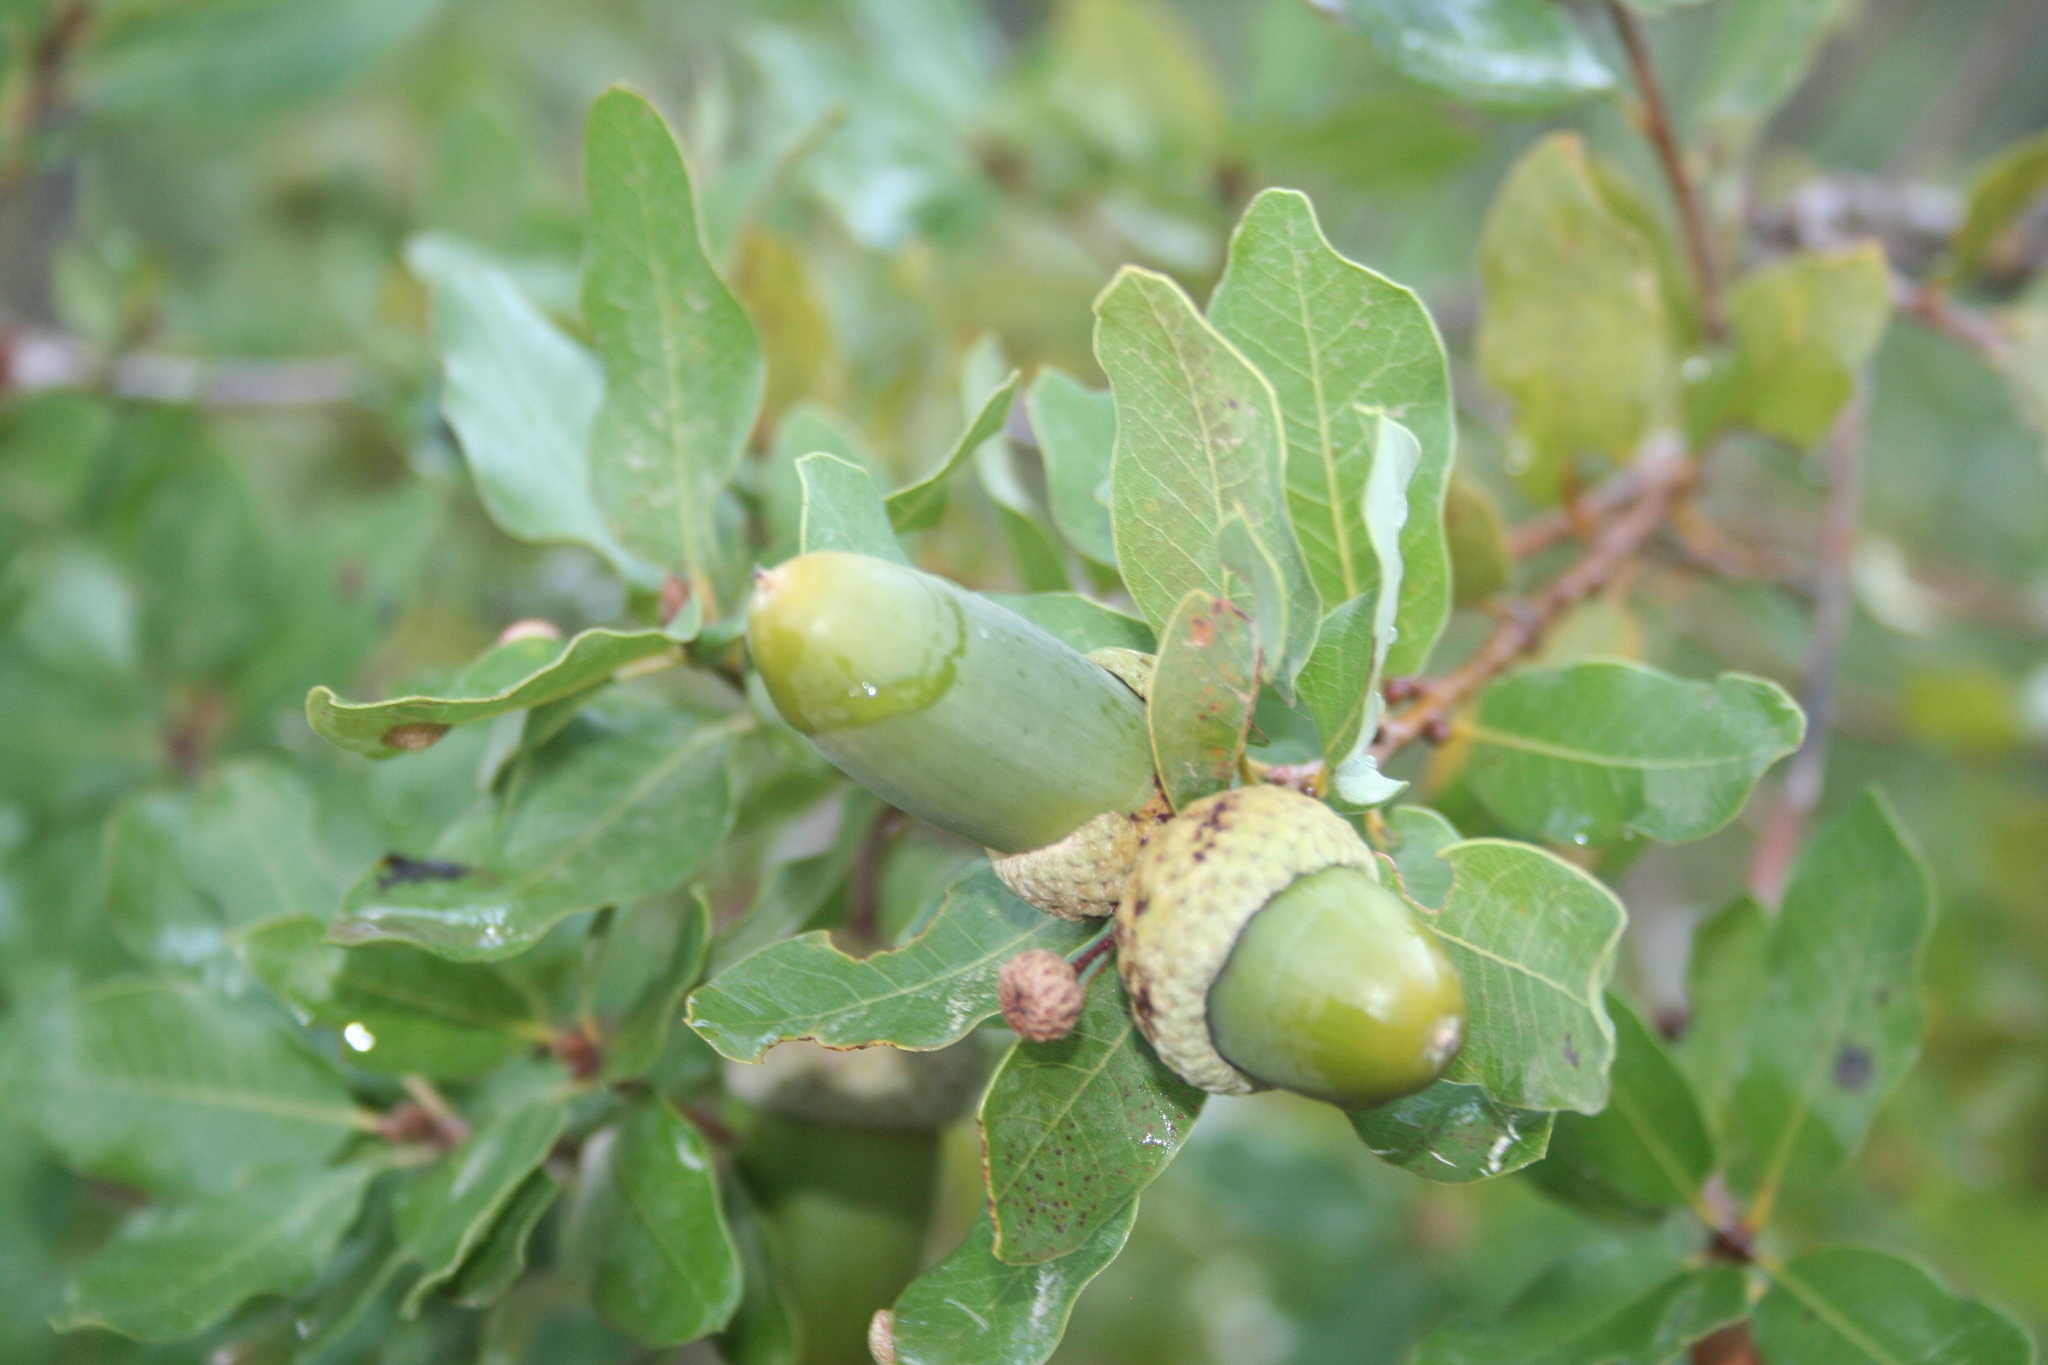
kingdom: Plantae
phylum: Tracheophyta
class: Magnoliopsida
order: Fagales
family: Fagaceae
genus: Quercus
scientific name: Quercus infectoria
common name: Aleppo oak
